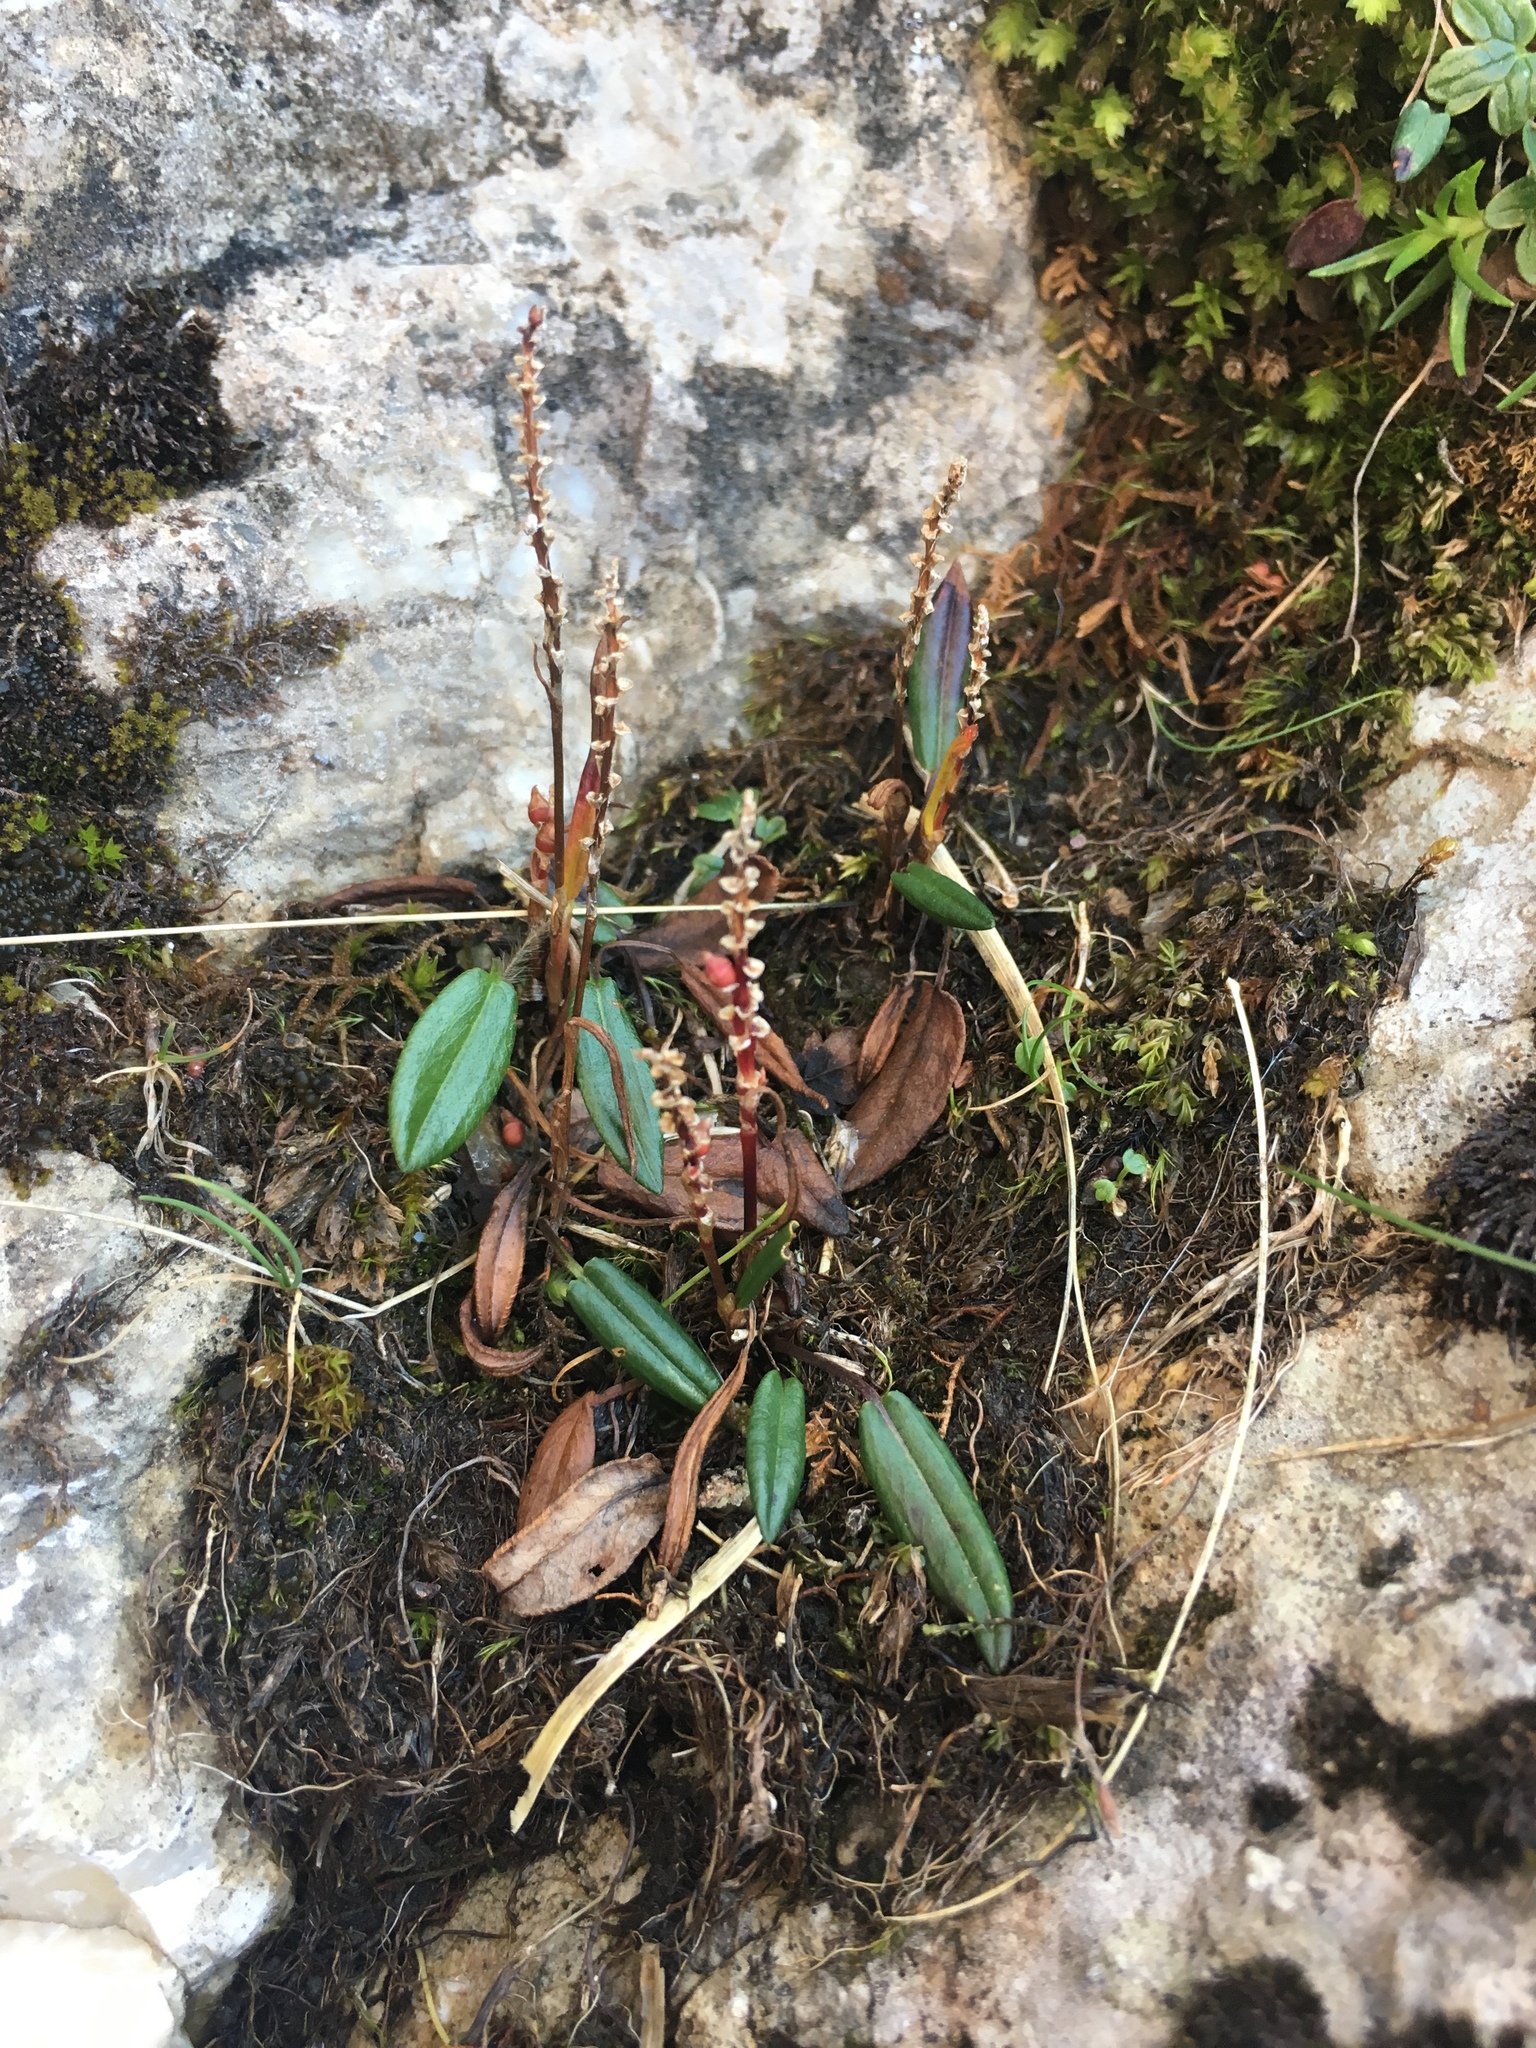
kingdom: Plantae
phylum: Tracheophyta
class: Magnoliopsida
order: Caryophyllales
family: Polygonaceae
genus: Bistorta
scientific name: Bistorta vivipara
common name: Alpine bistort
